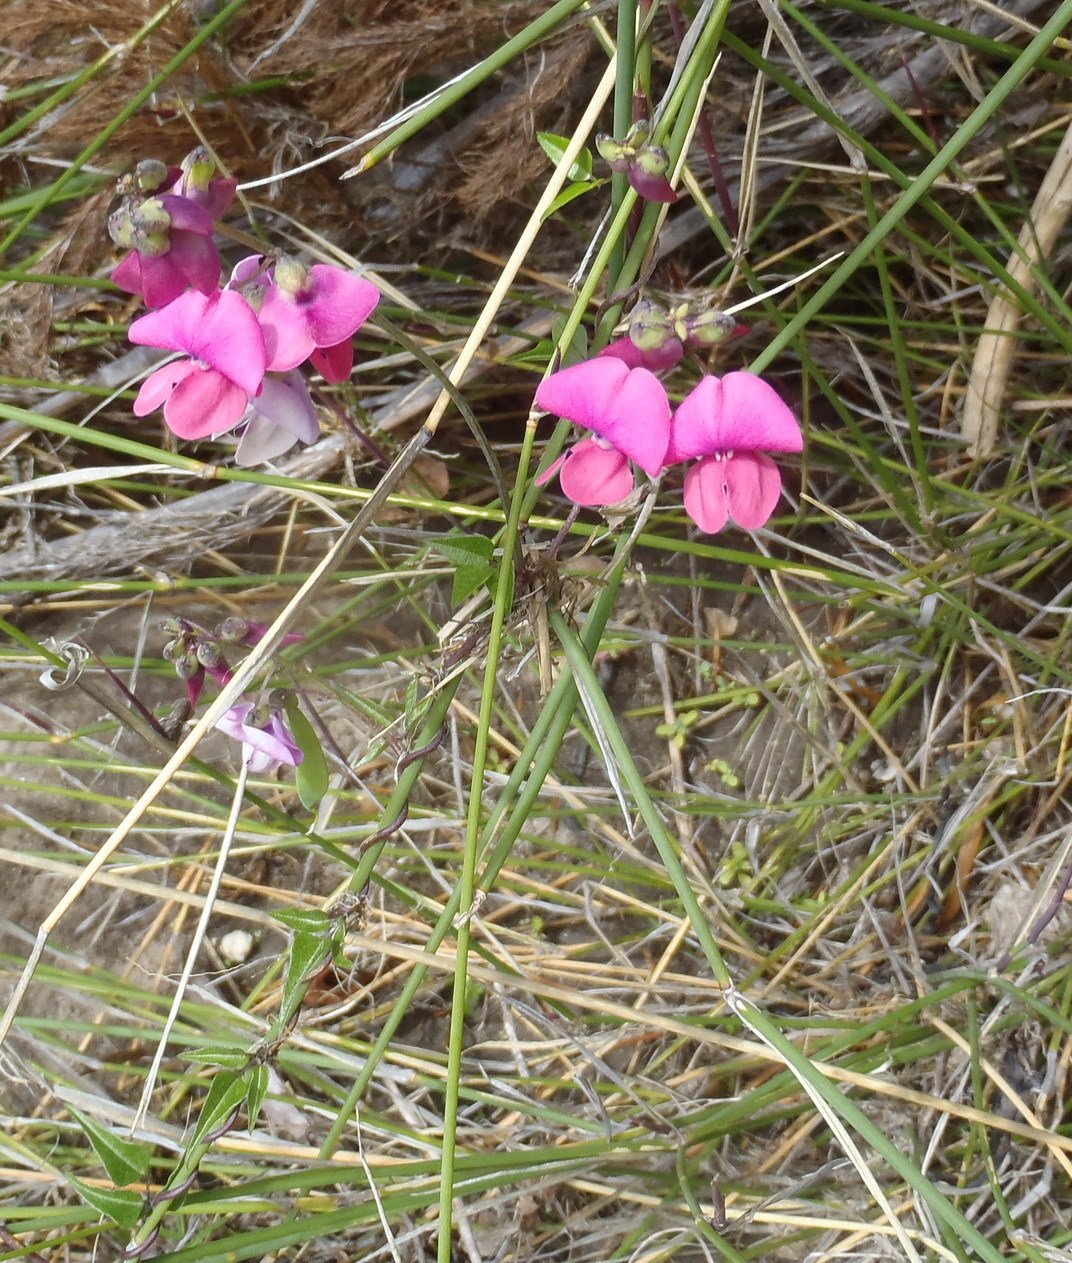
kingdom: Plantae
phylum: Tracheophyta
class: Magnoliopsida
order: Fabales
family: Fabaceae
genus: Dipogon
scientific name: Dipogon lignosus
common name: Okie bean
